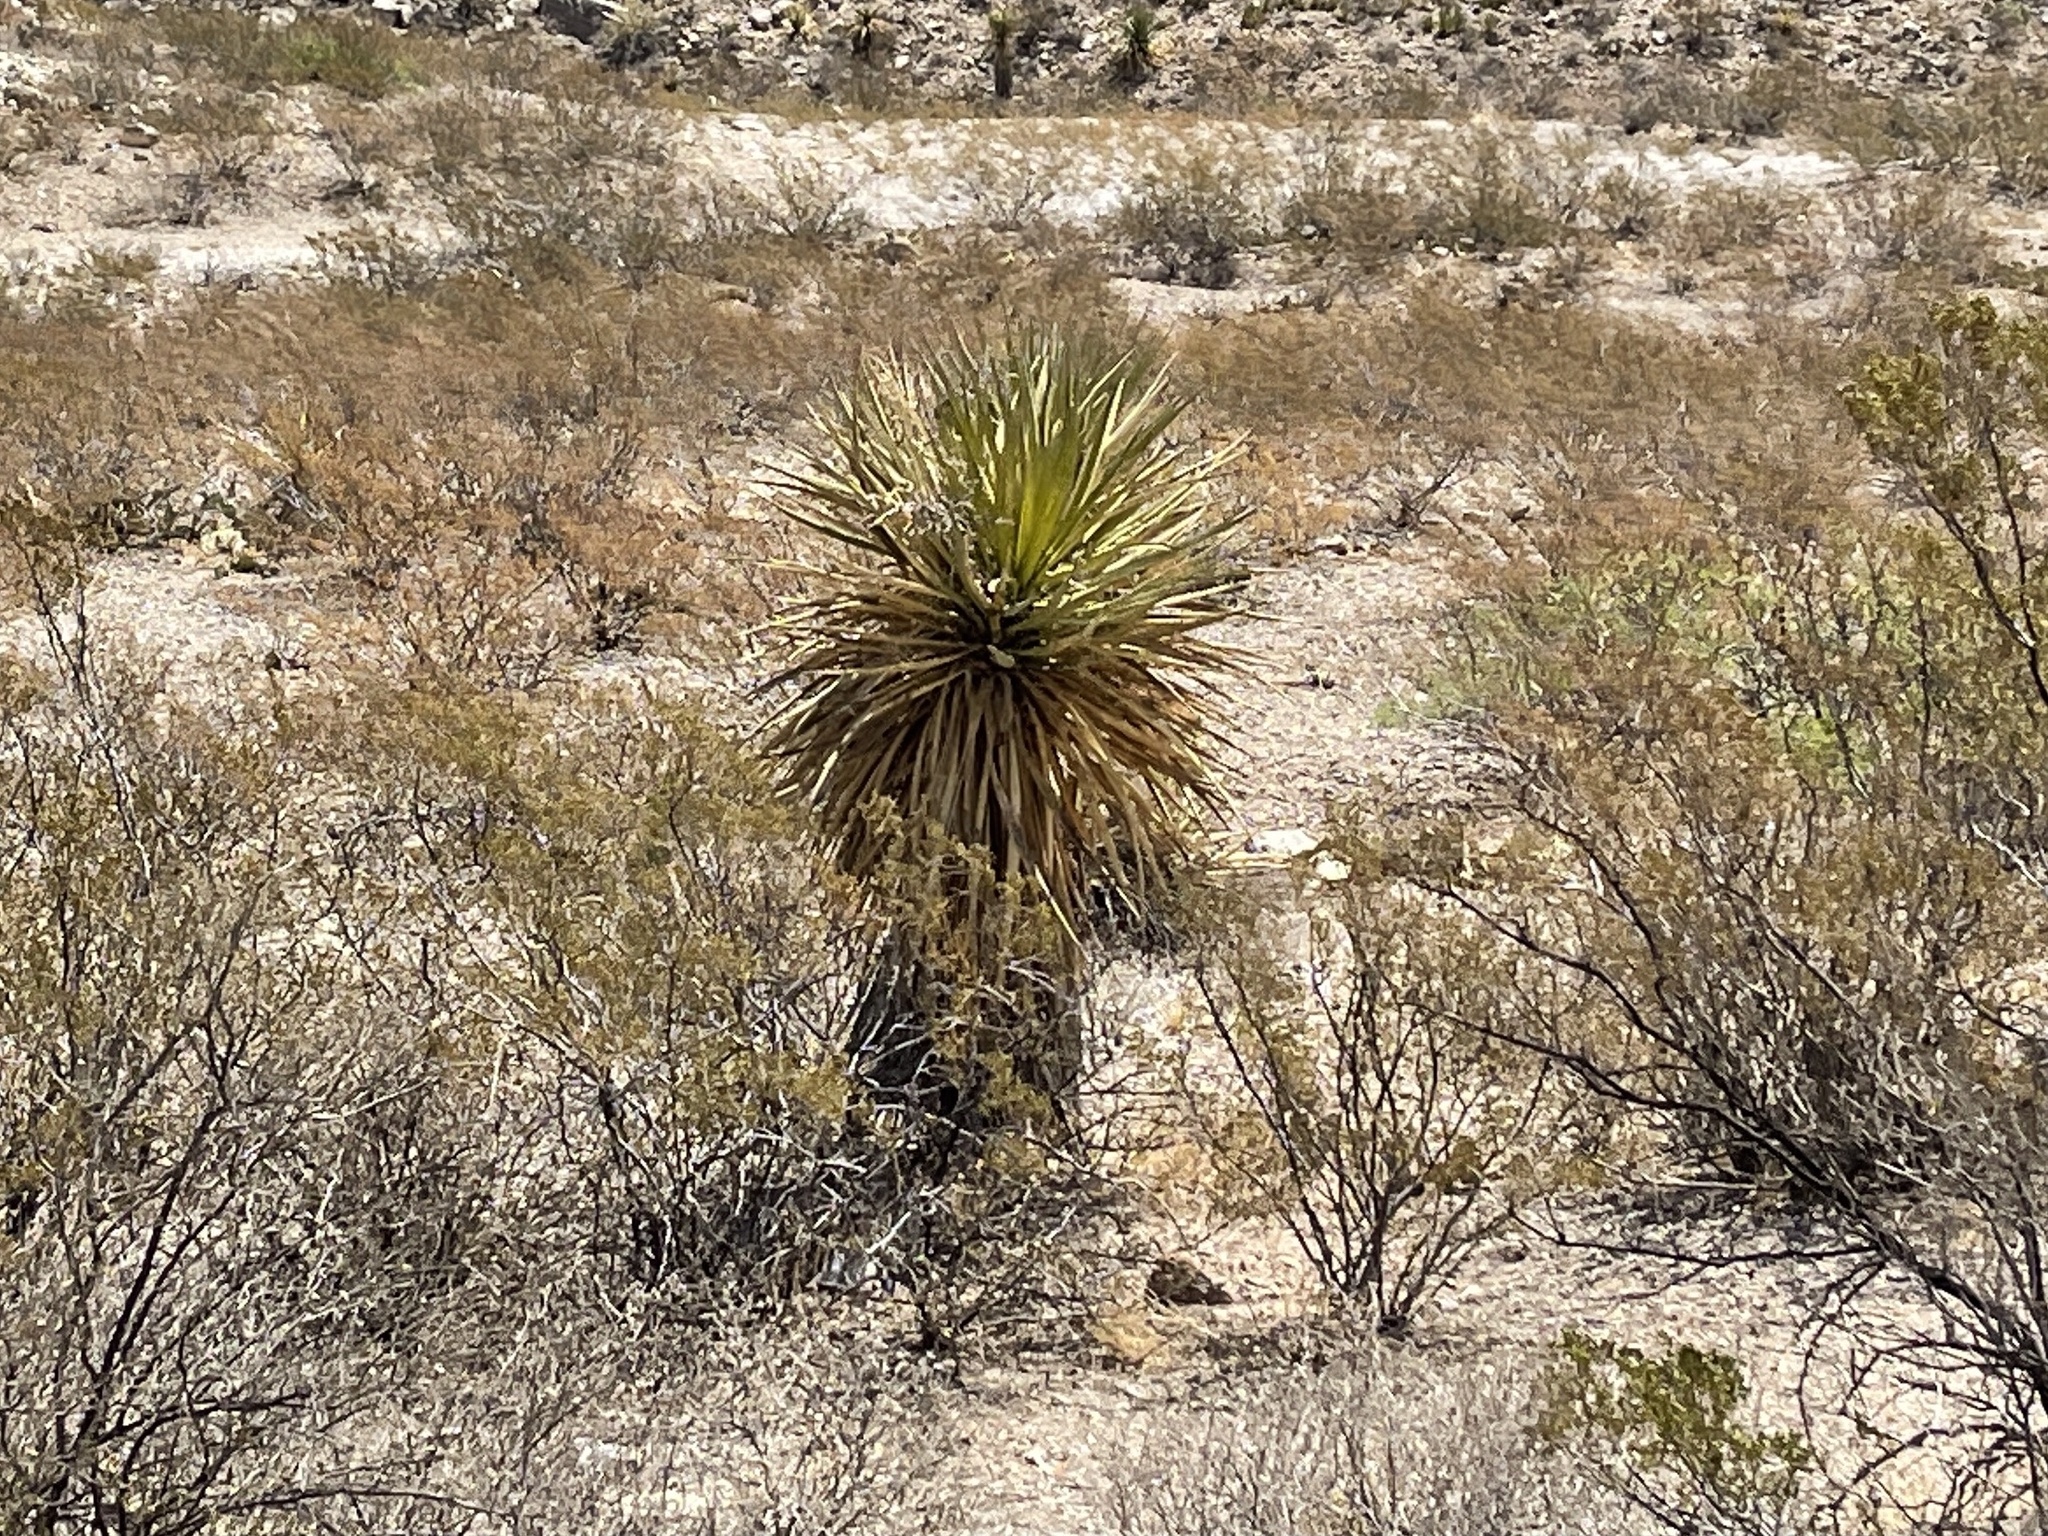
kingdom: Plantae
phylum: Tracheophyta
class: Liliopsida
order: Asparagales
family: Asparagaceae
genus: Yucca
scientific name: Yucca treculiana
